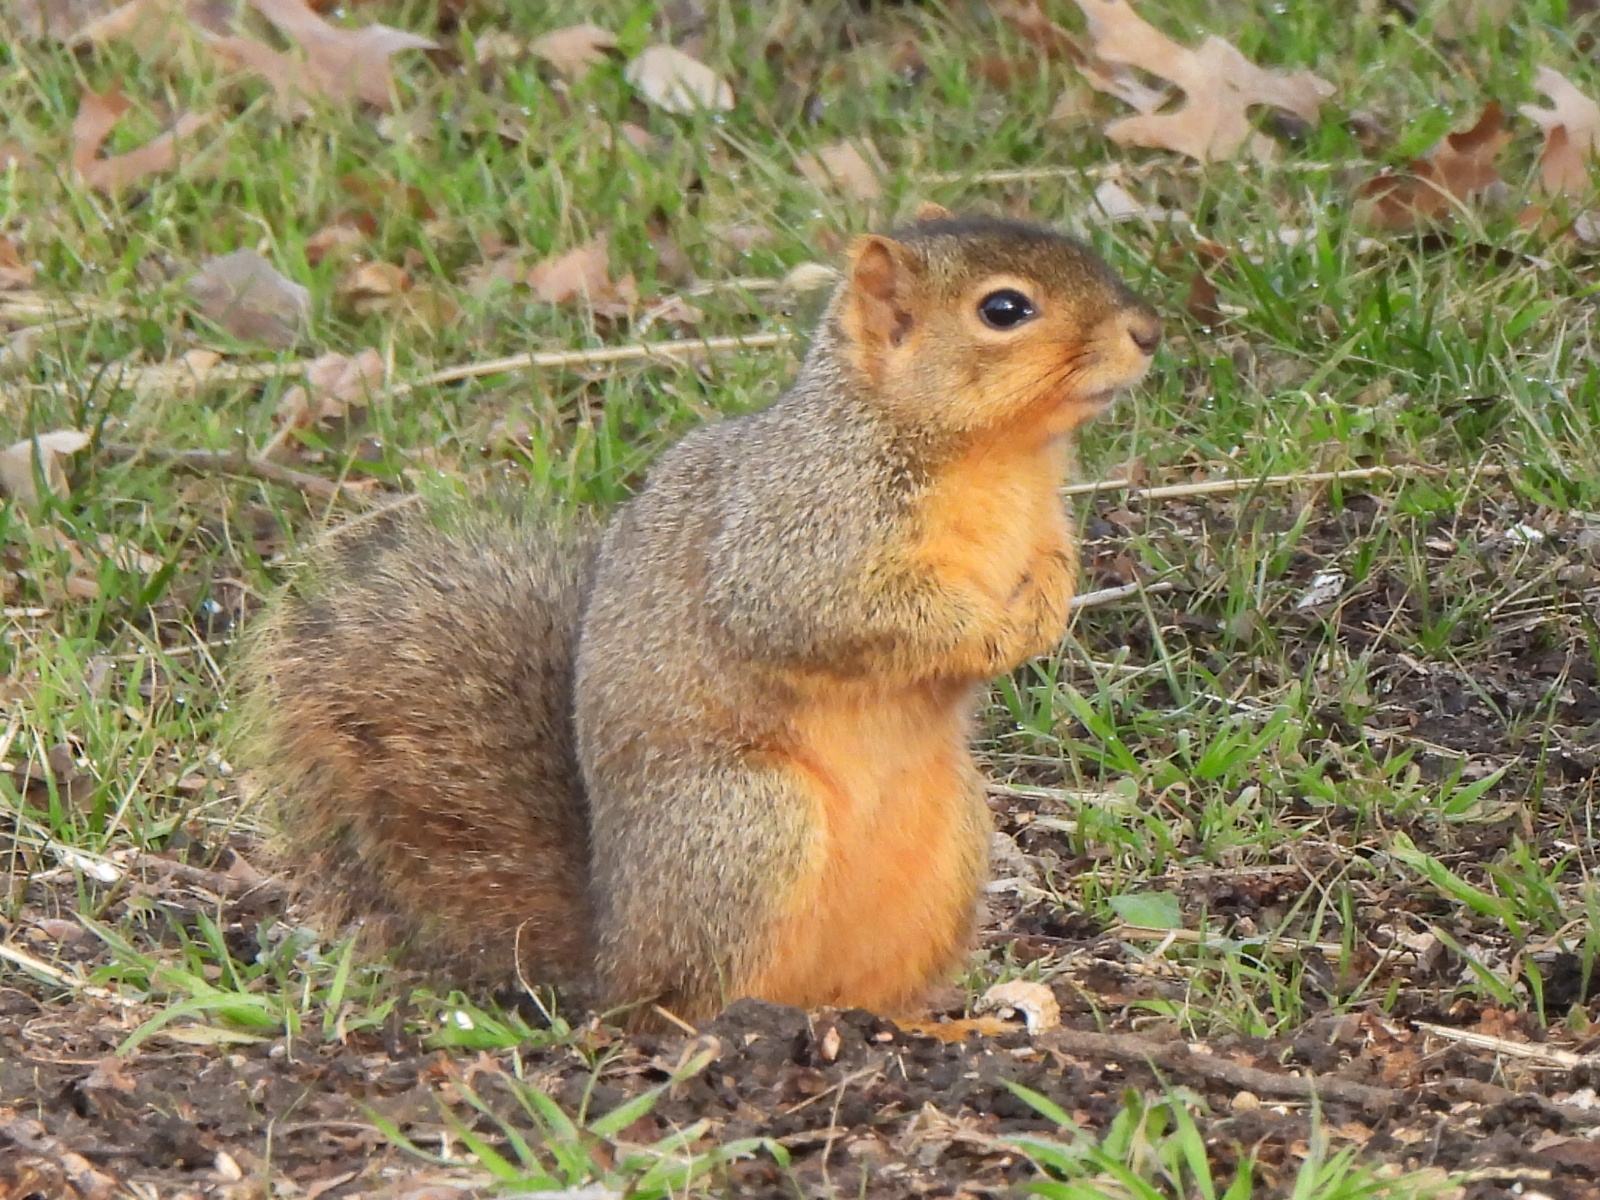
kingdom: Animalia
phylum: Chordata
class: Mammalia
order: Rodentia
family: Sciuridae
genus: Sciurus
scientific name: Sciurus niger
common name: Fox squirrel
